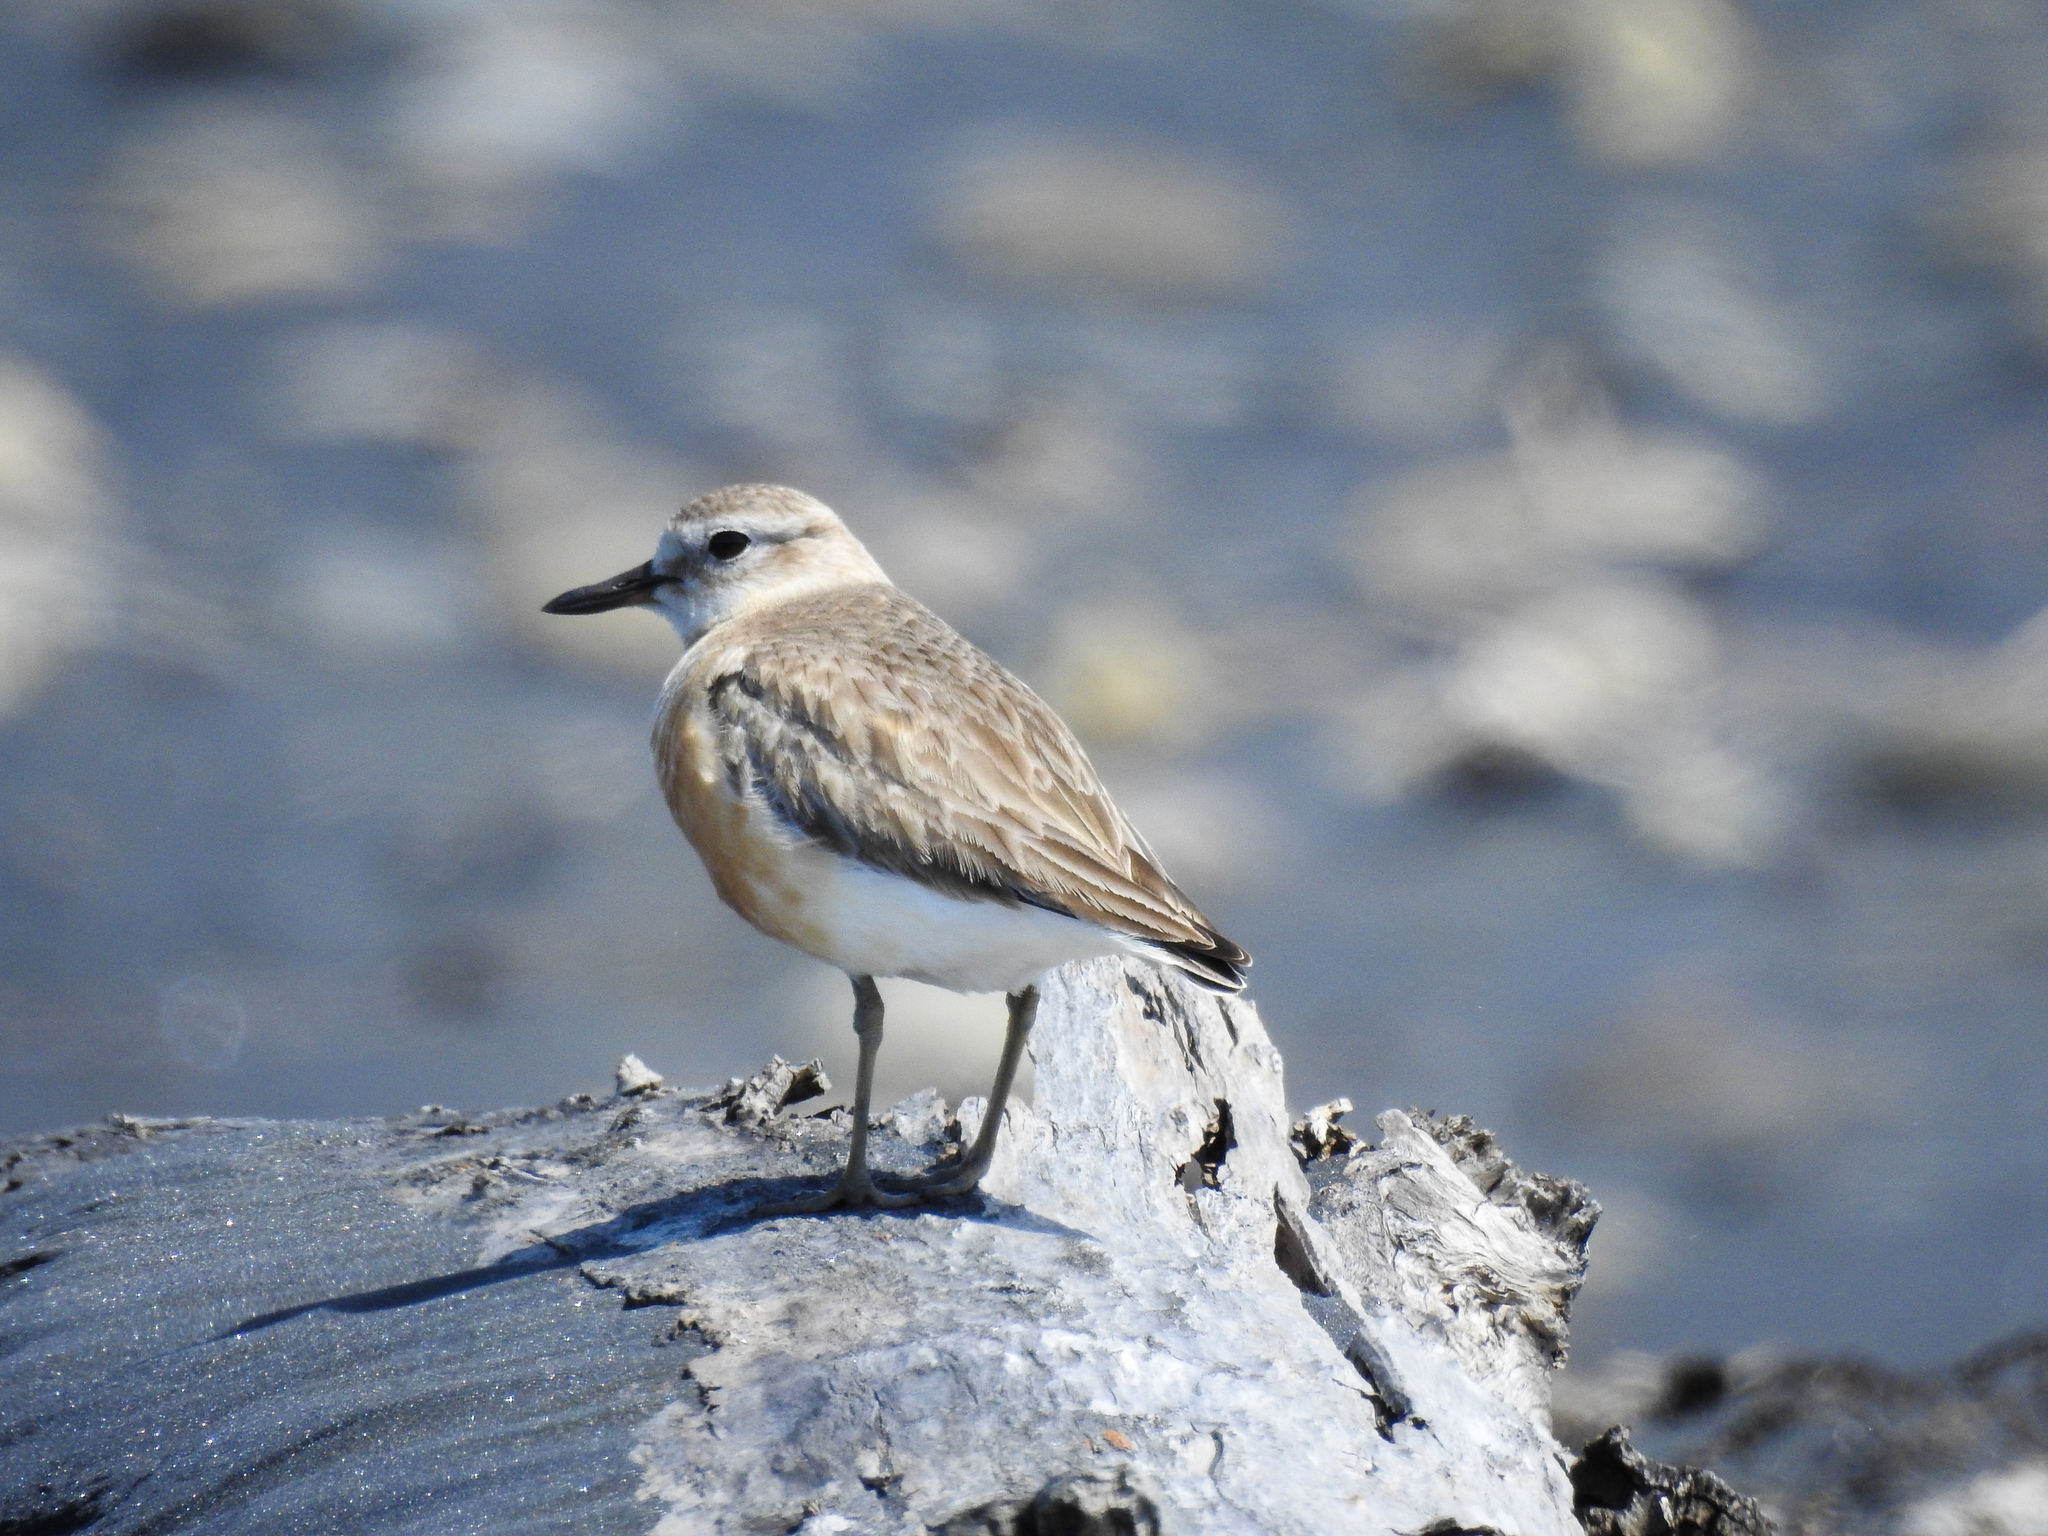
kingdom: Animalia
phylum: Chordata
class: Aves
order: Charadriiformes
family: Charadriidae
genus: Anarhynchus
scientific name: Anarhynchus
